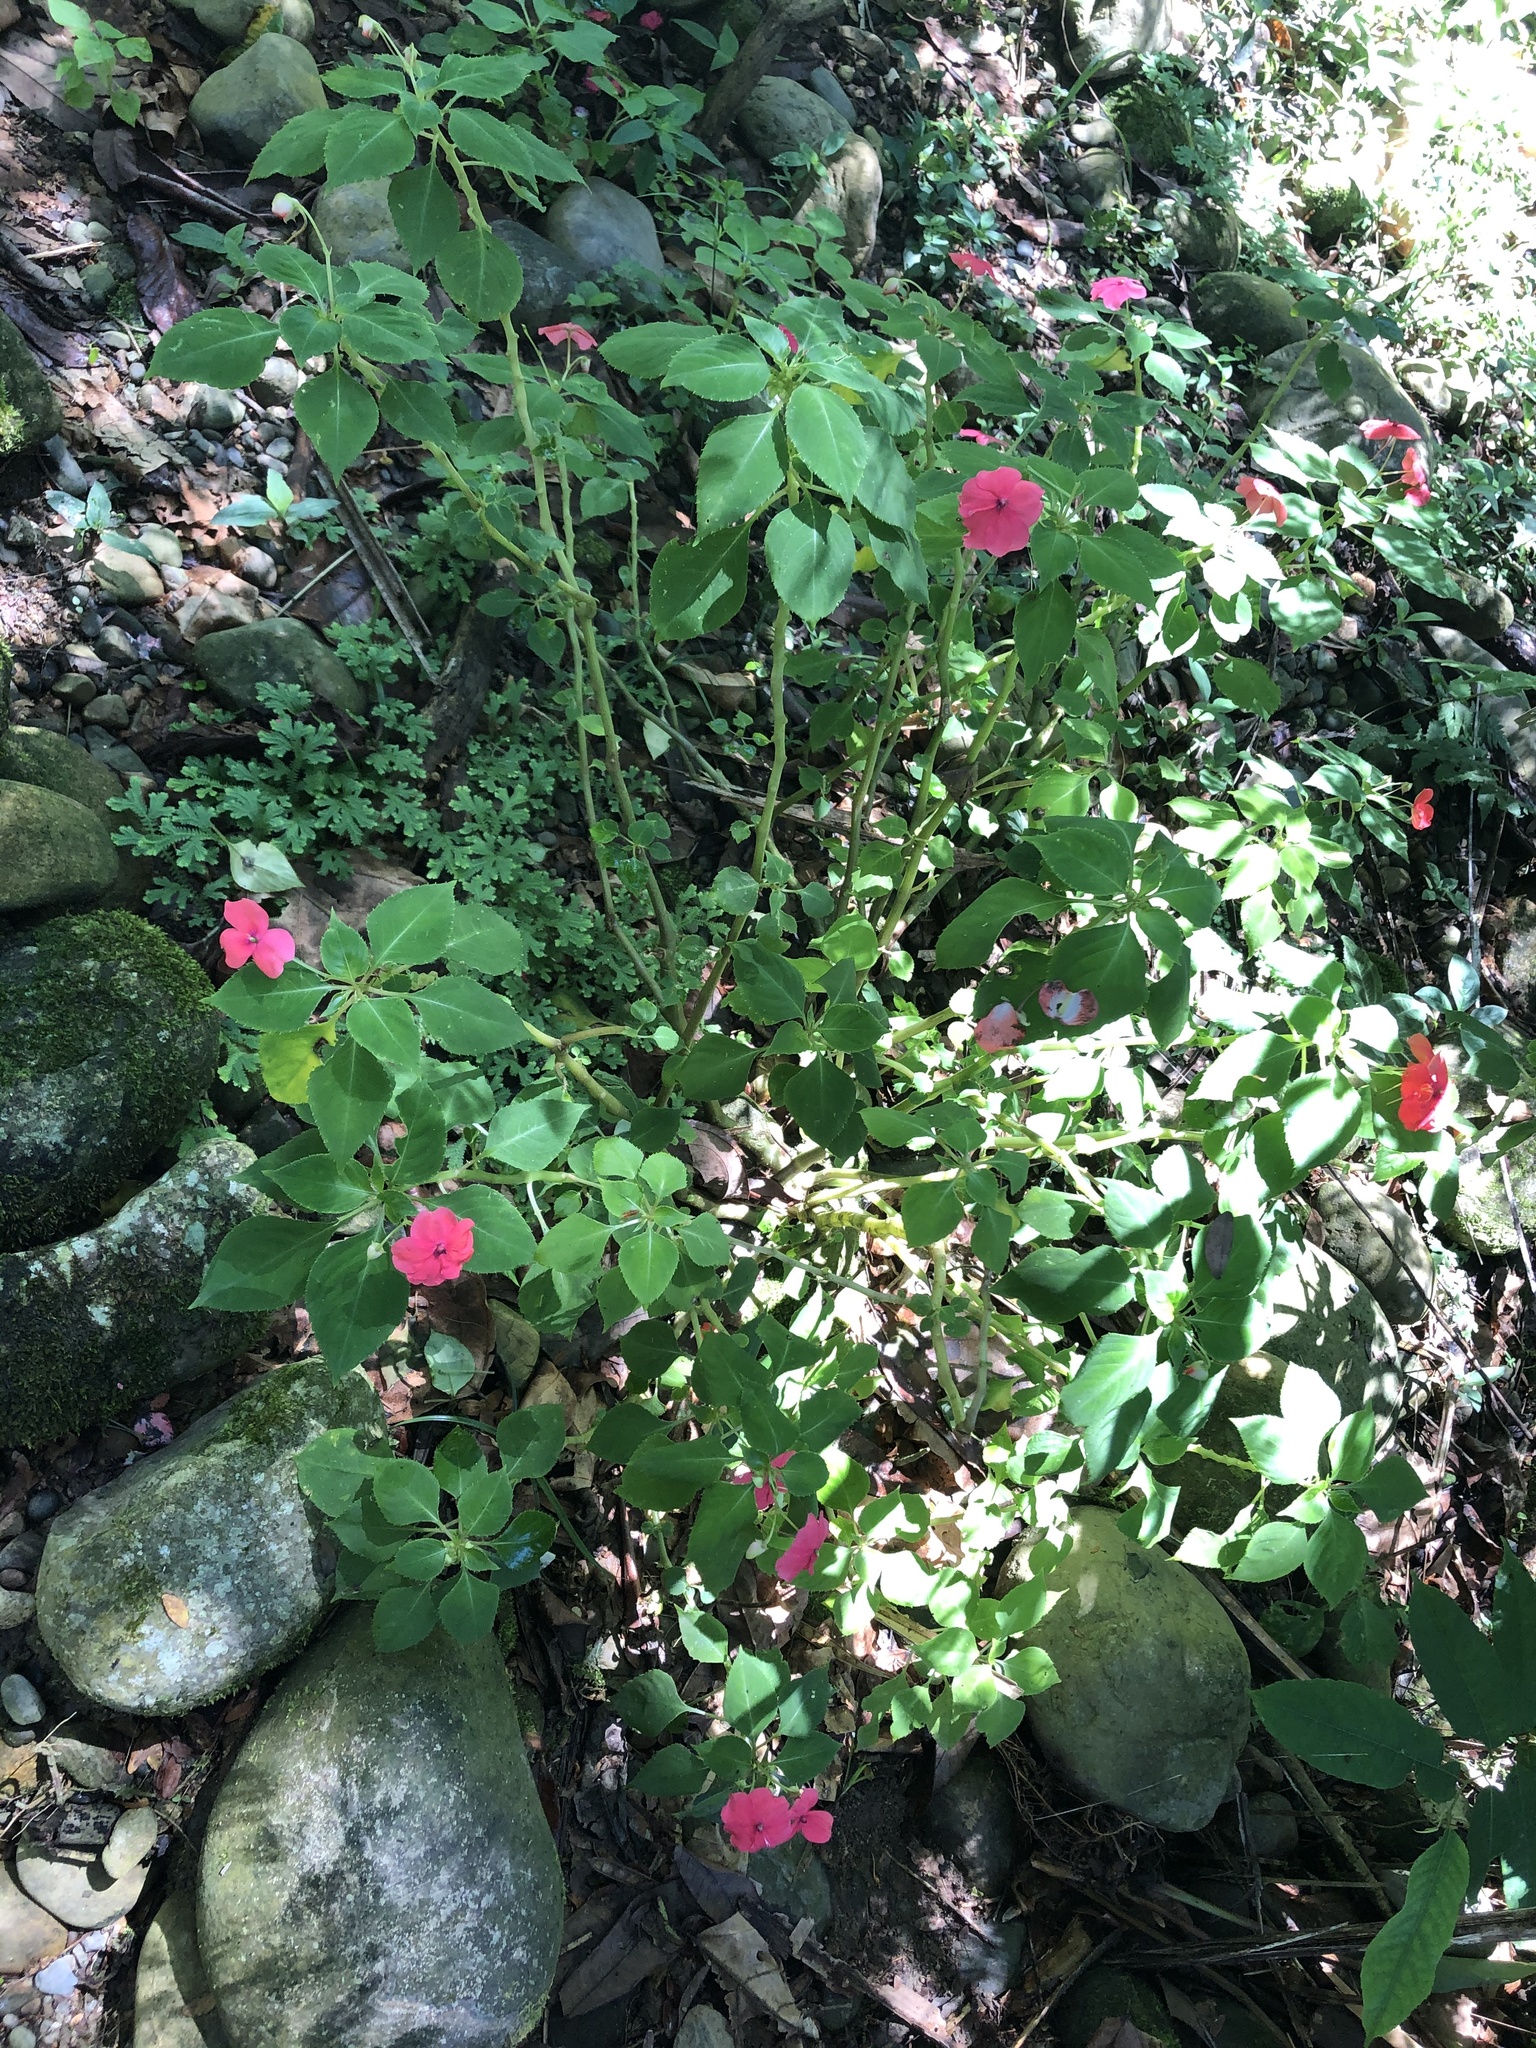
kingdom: Plantae
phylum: Tracheophyta
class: Magnoliopsida
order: Ericales
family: Balsaminaceae
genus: Impatiens
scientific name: Impatiens walleriana
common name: Buzzy lizzy
